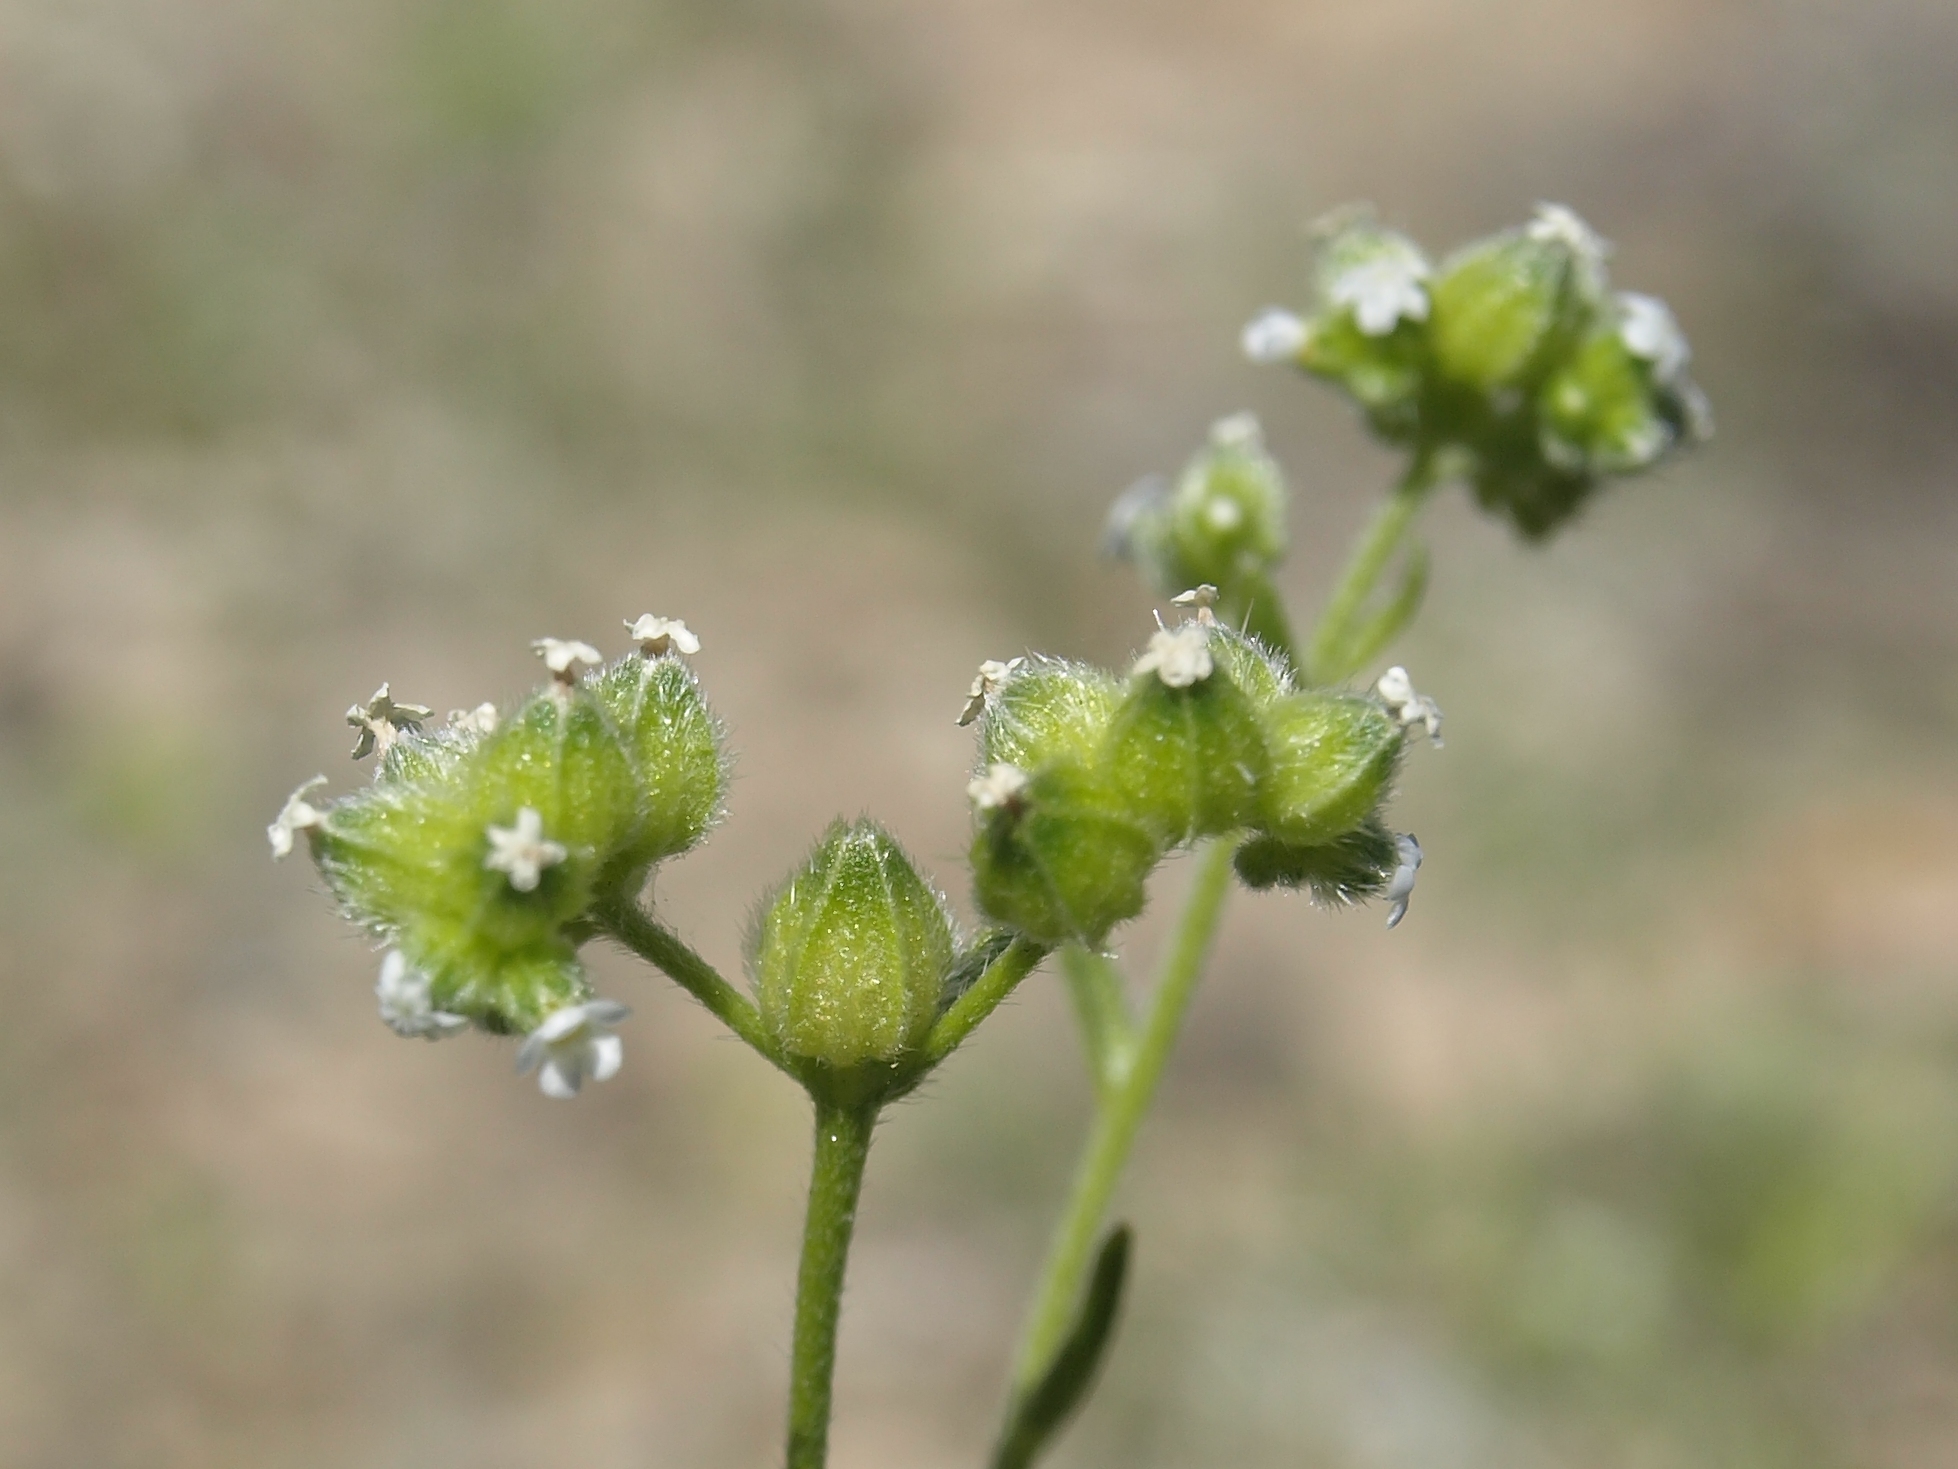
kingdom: Plantae
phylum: Tracheophyta
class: Magnoliopsida
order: Boraginales
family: Boraginaceae
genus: Cryptantha
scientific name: Cryptantha pterocarya
